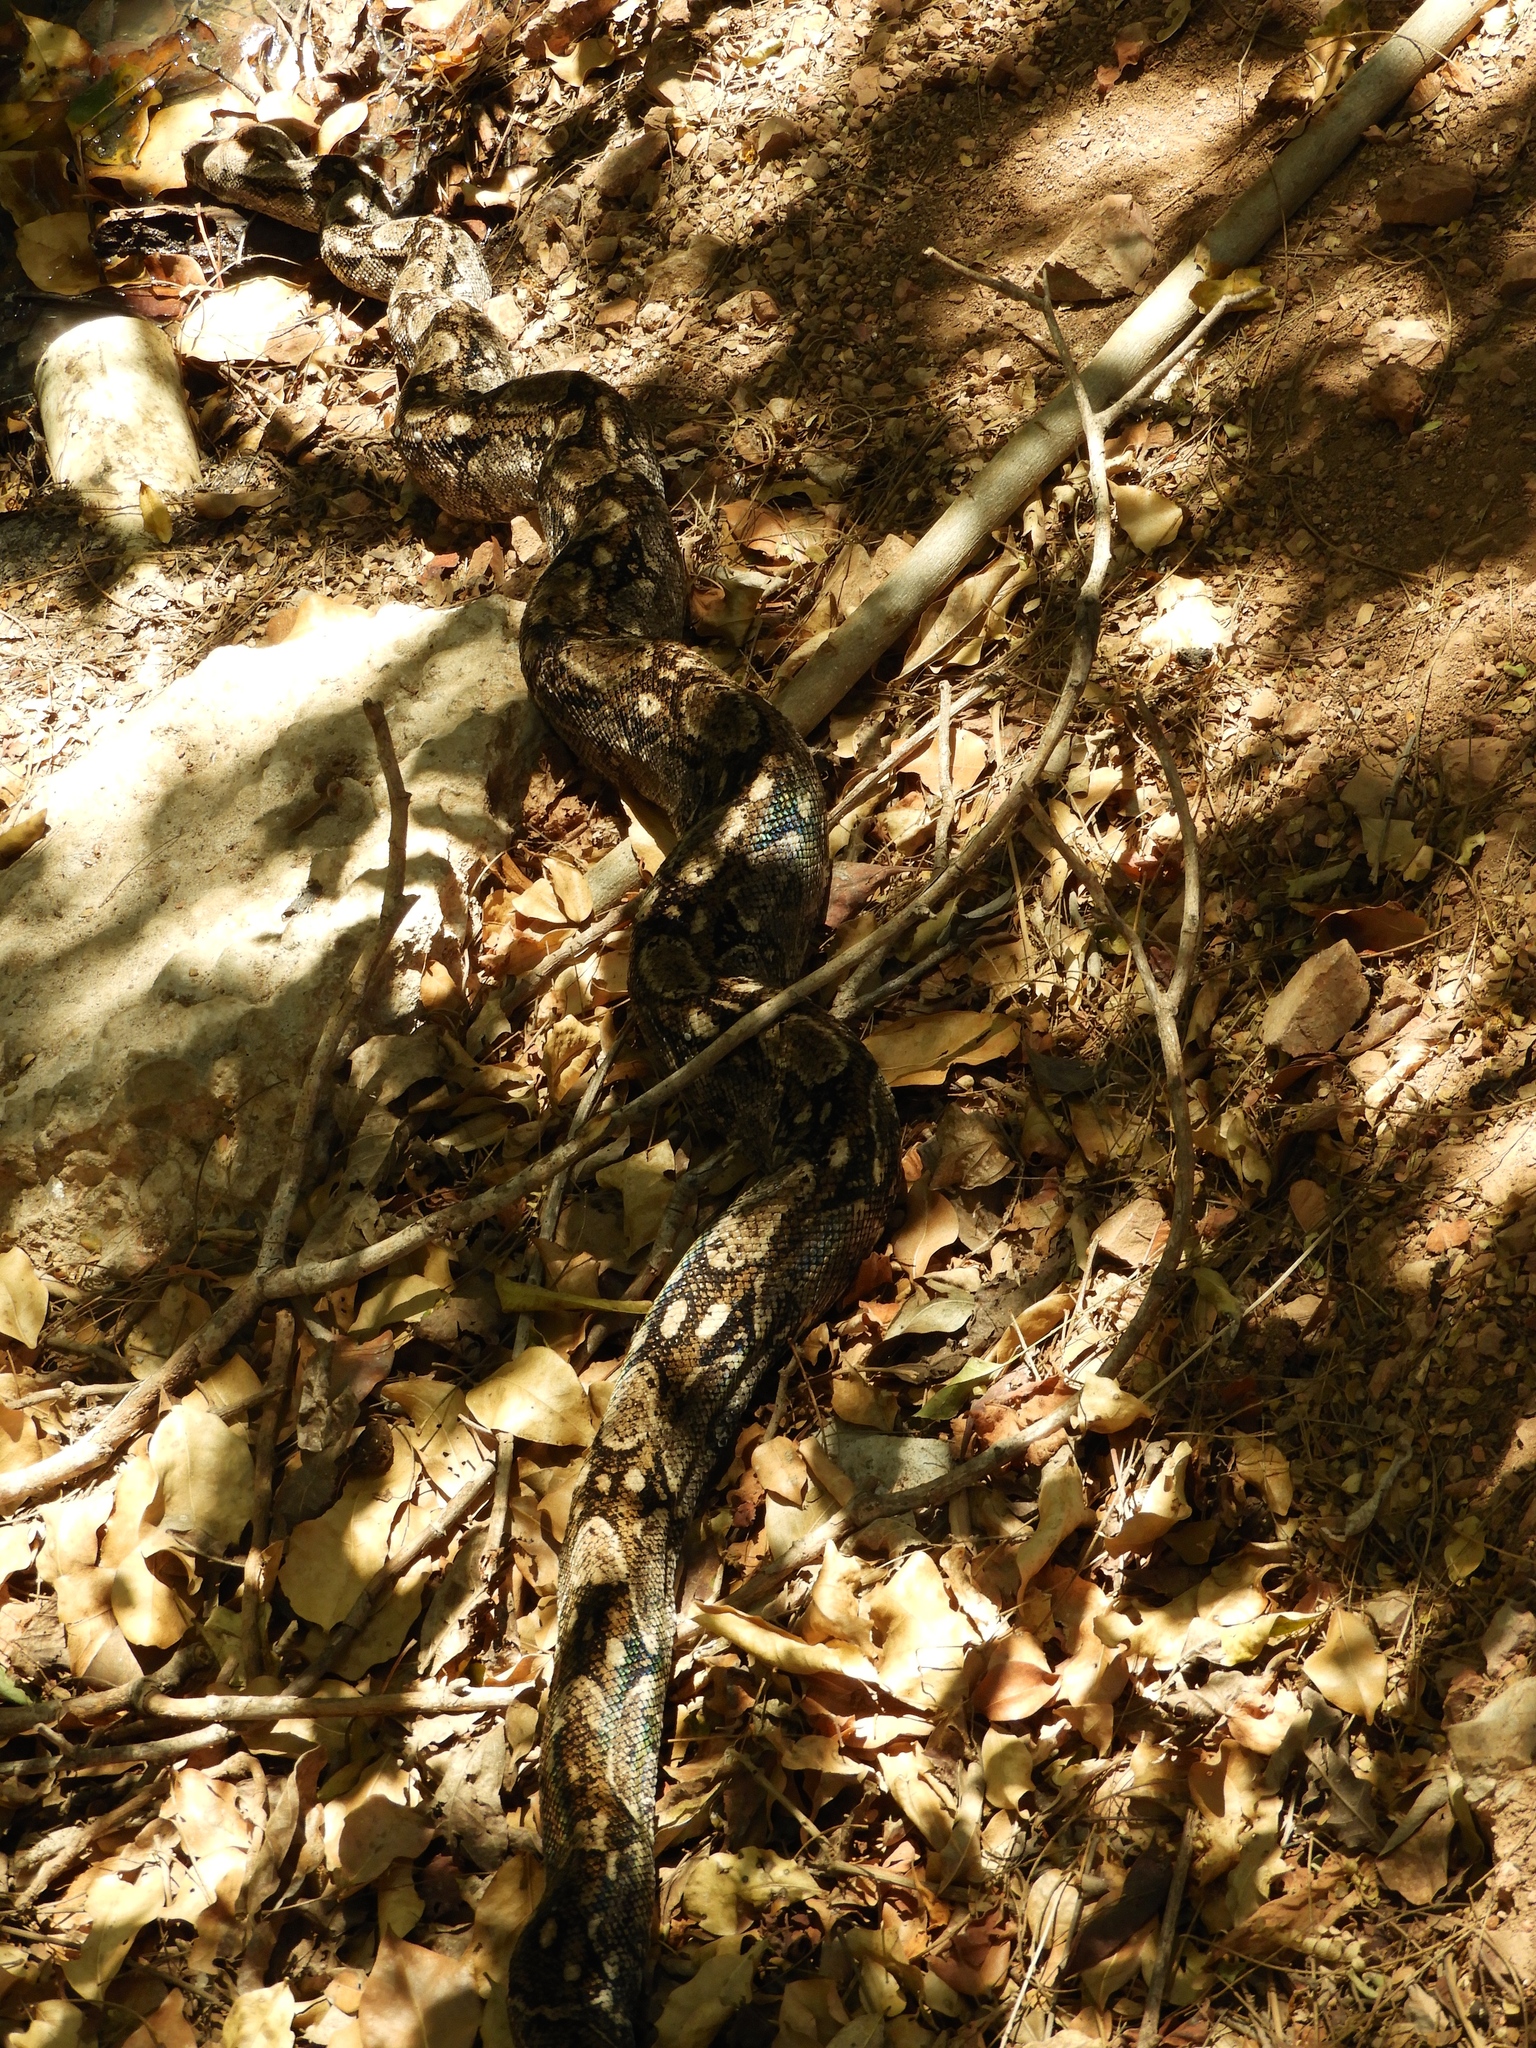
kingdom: Animalia
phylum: Chordata
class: Squamata
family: Boidae
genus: Boa
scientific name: Boa
